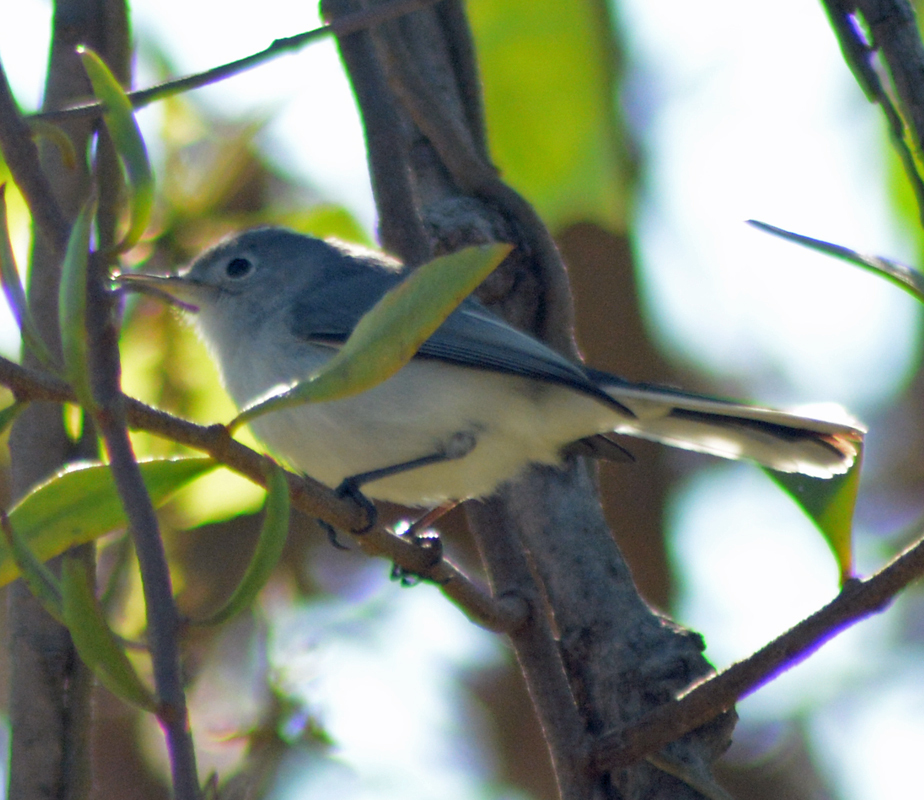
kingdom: Animalia
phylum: Chordata
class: Aves
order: Passeriformes
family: Polioptilidae
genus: Polioptila
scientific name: Polioptila caerulea
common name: Blue-gray gnatcatcher
